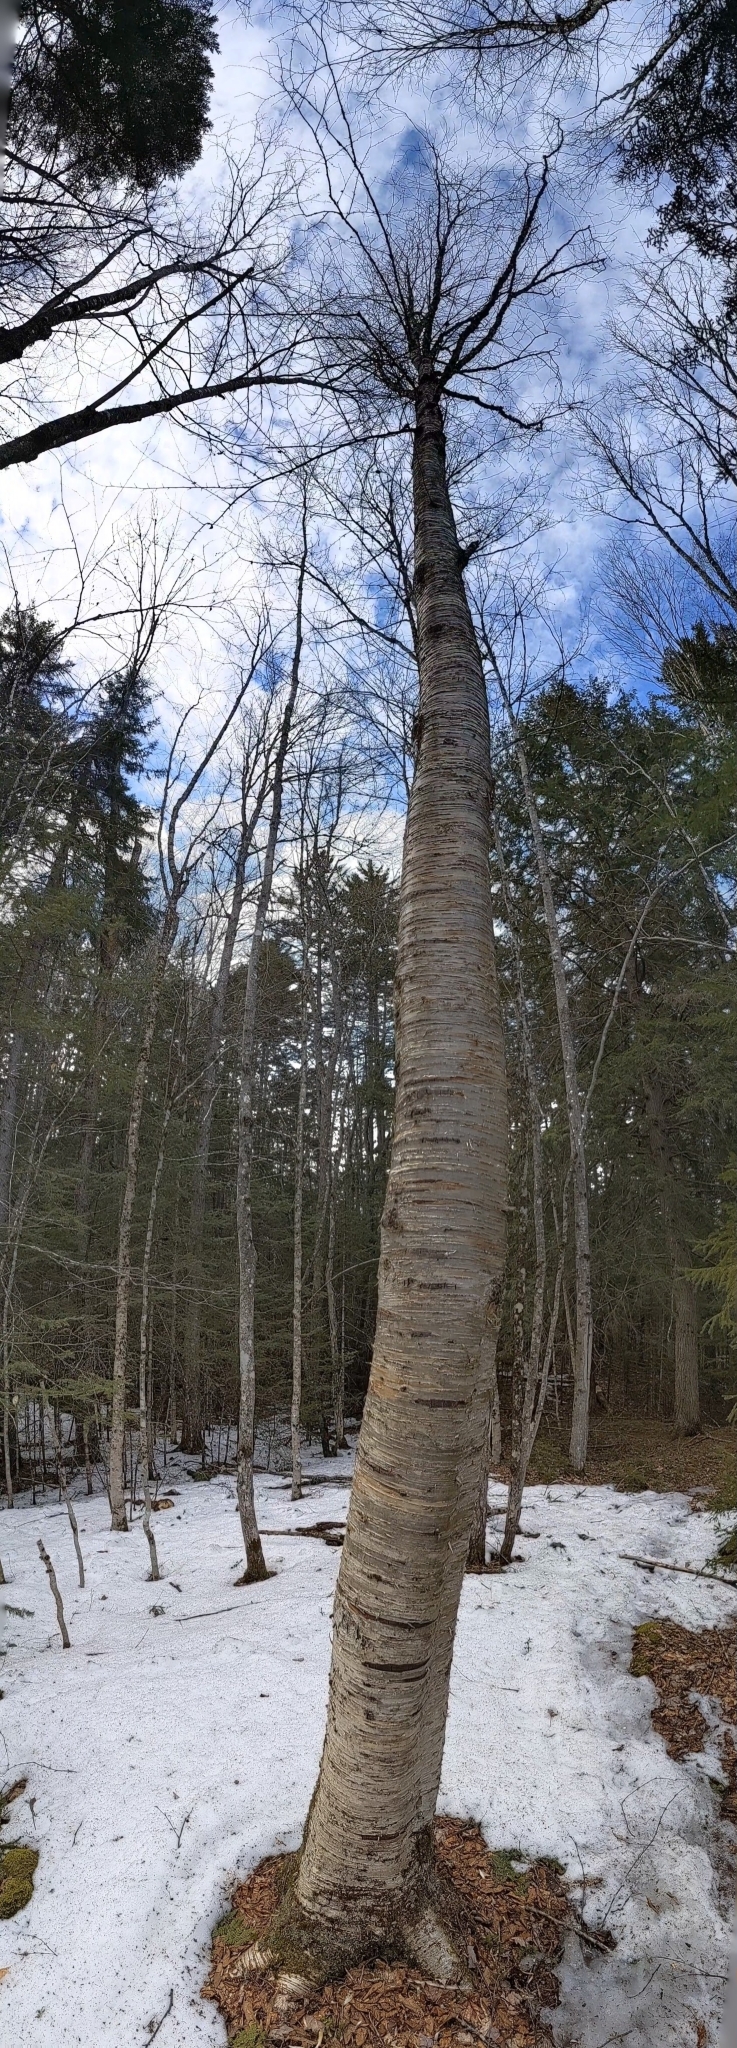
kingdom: Plantae
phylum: Tracheophyta
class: Magnoliopsida
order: Fagales
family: Betulaceae
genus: Betula
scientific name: Betula alleghaniensis
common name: Yellow birch
